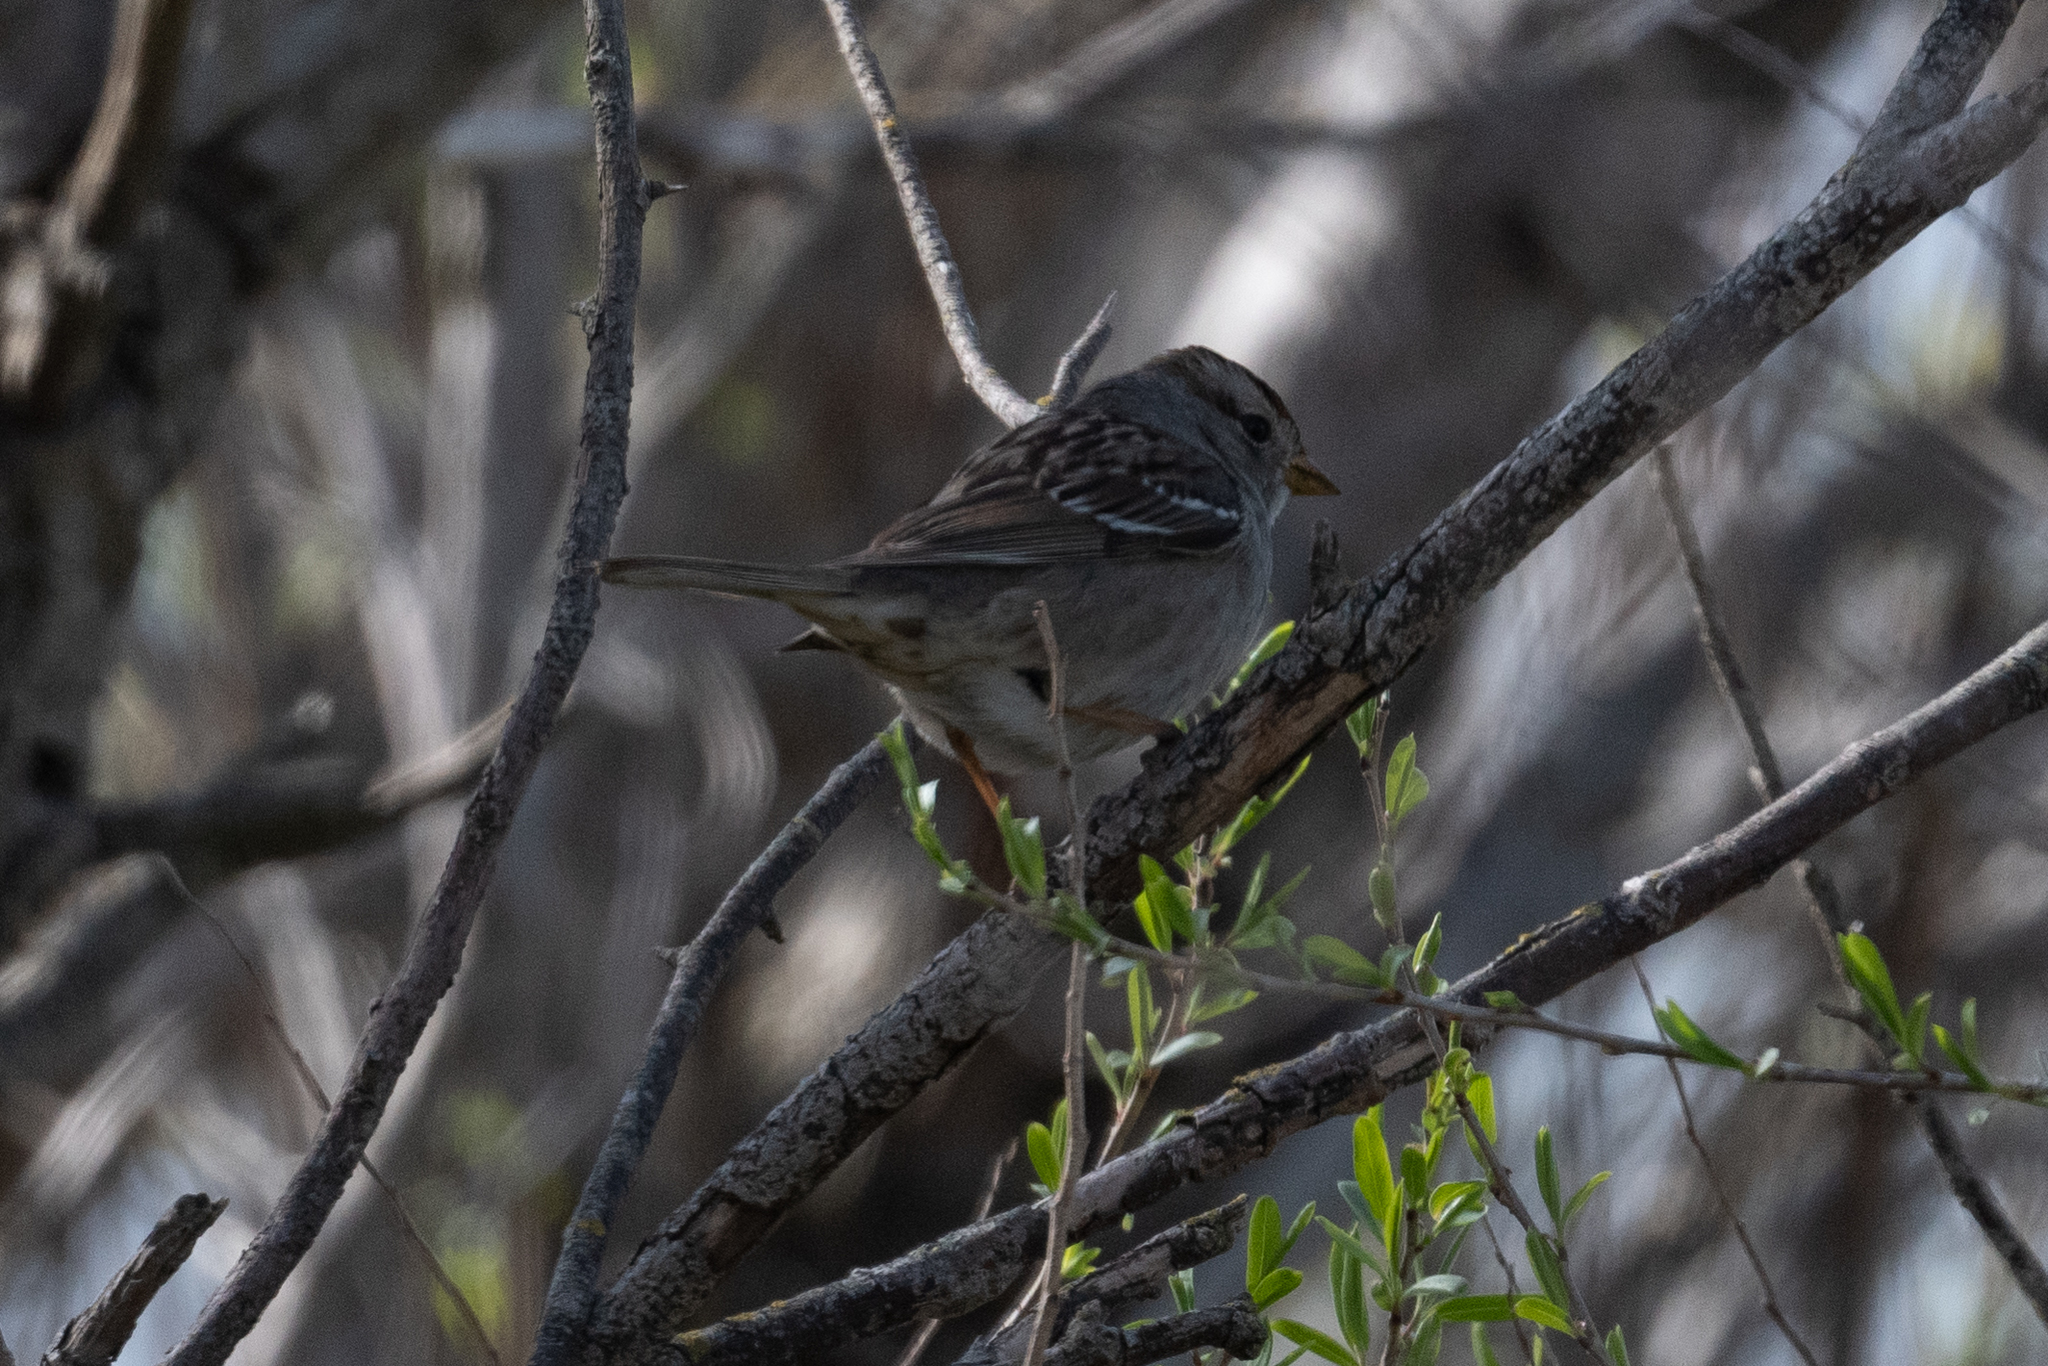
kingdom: Animalia
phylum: Chordata
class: Aves
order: Passeriformes
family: Passerellidae
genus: Zonotrichia
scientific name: Zonotrichia leucophrys
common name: White-crowned sparrow
